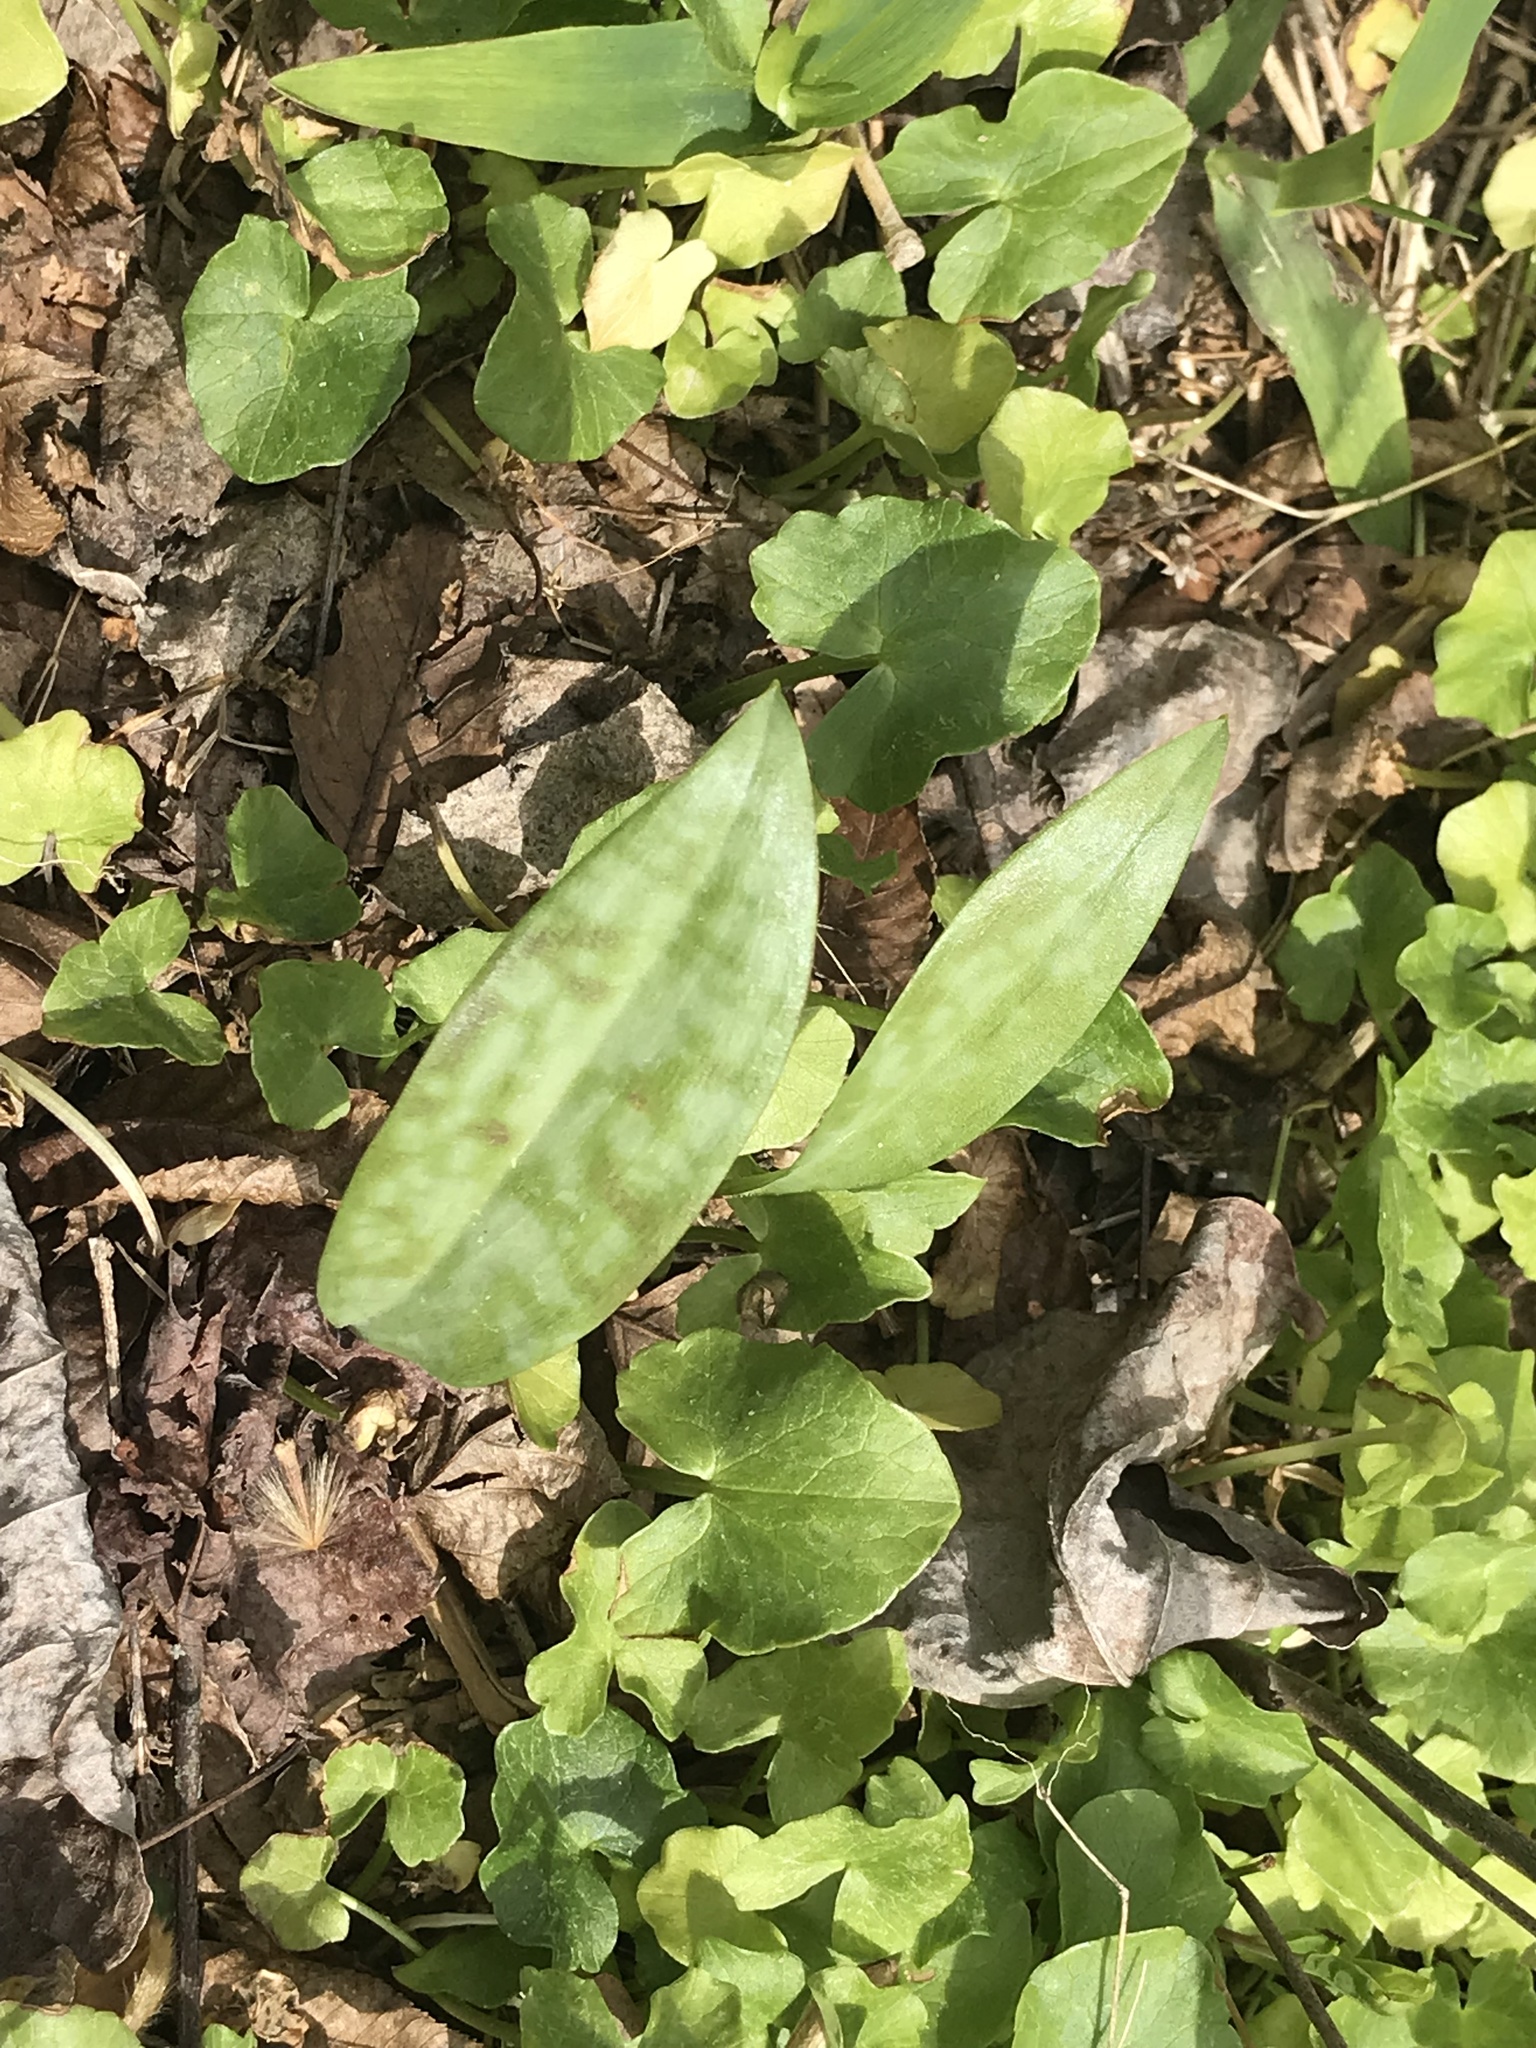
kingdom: Plantae
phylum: Tracheophyta
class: Liliopsida
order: Liliales
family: Liliaceae
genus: Erythronium
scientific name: Erythronium americanum
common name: Yellow adder's-tongue
